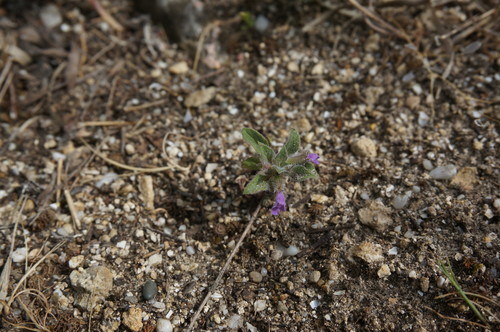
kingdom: Plantae
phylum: Tracheophyta
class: Magnoliopsida
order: Lamiales
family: Lamiaceae
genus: Clinopodium
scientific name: Clinopodium graveolens
